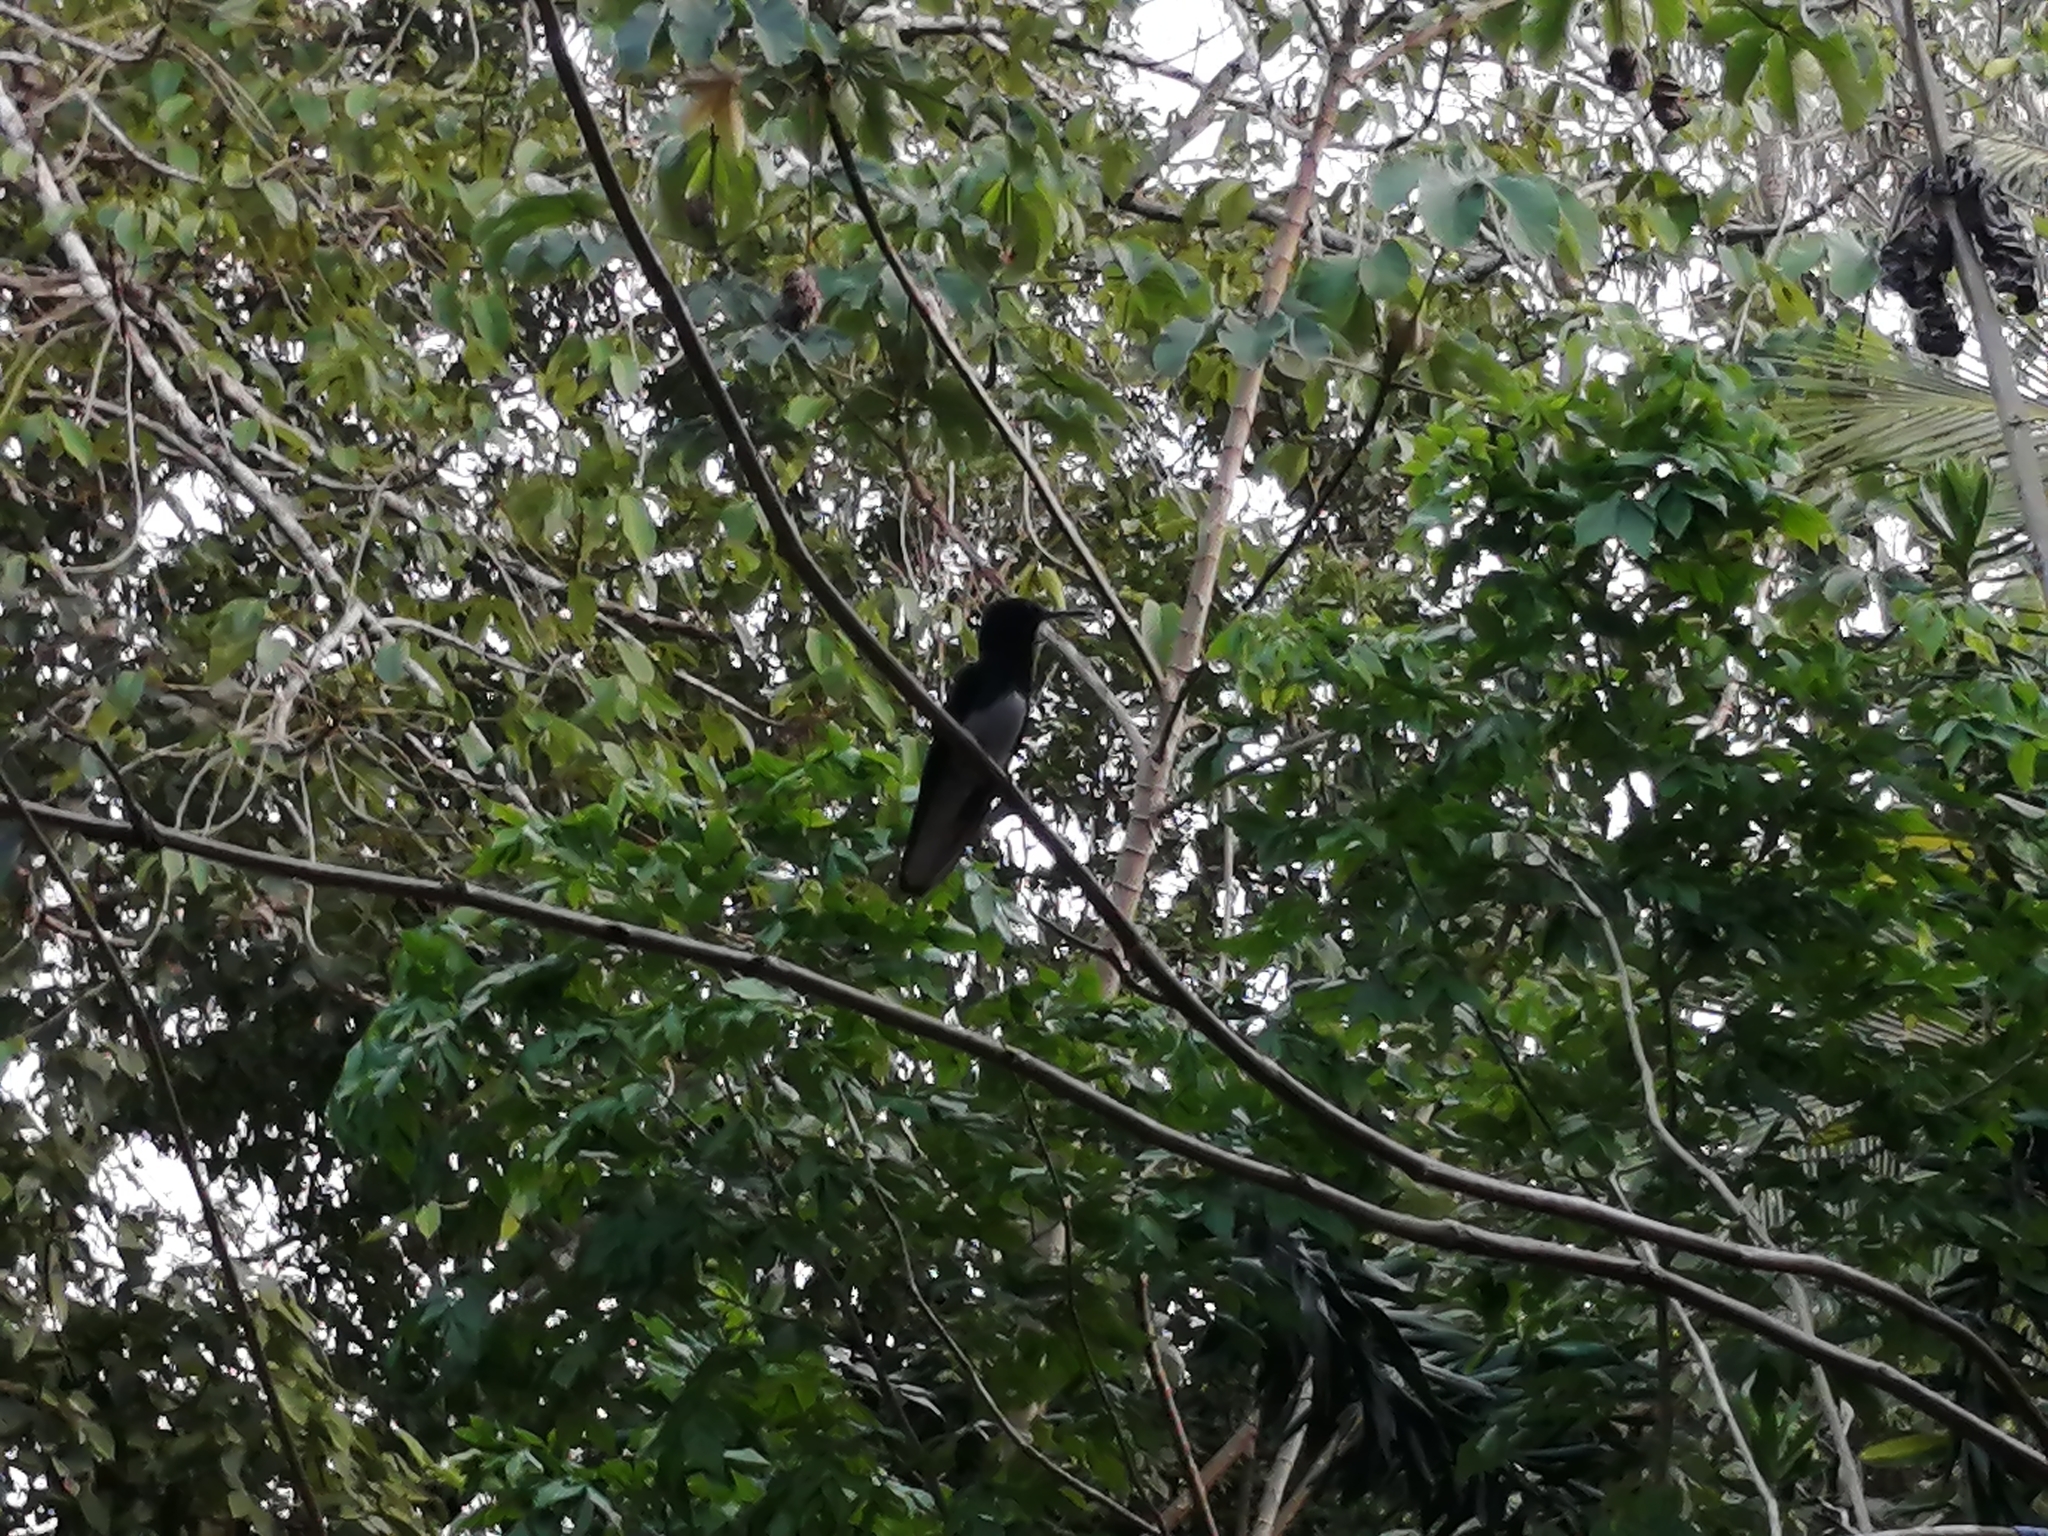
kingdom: Animalia
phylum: Chordata
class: Aves
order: Apodiformes
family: Trochilidae
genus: Florisuga
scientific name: Florisuga mellivora
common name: White-necked jacobin
